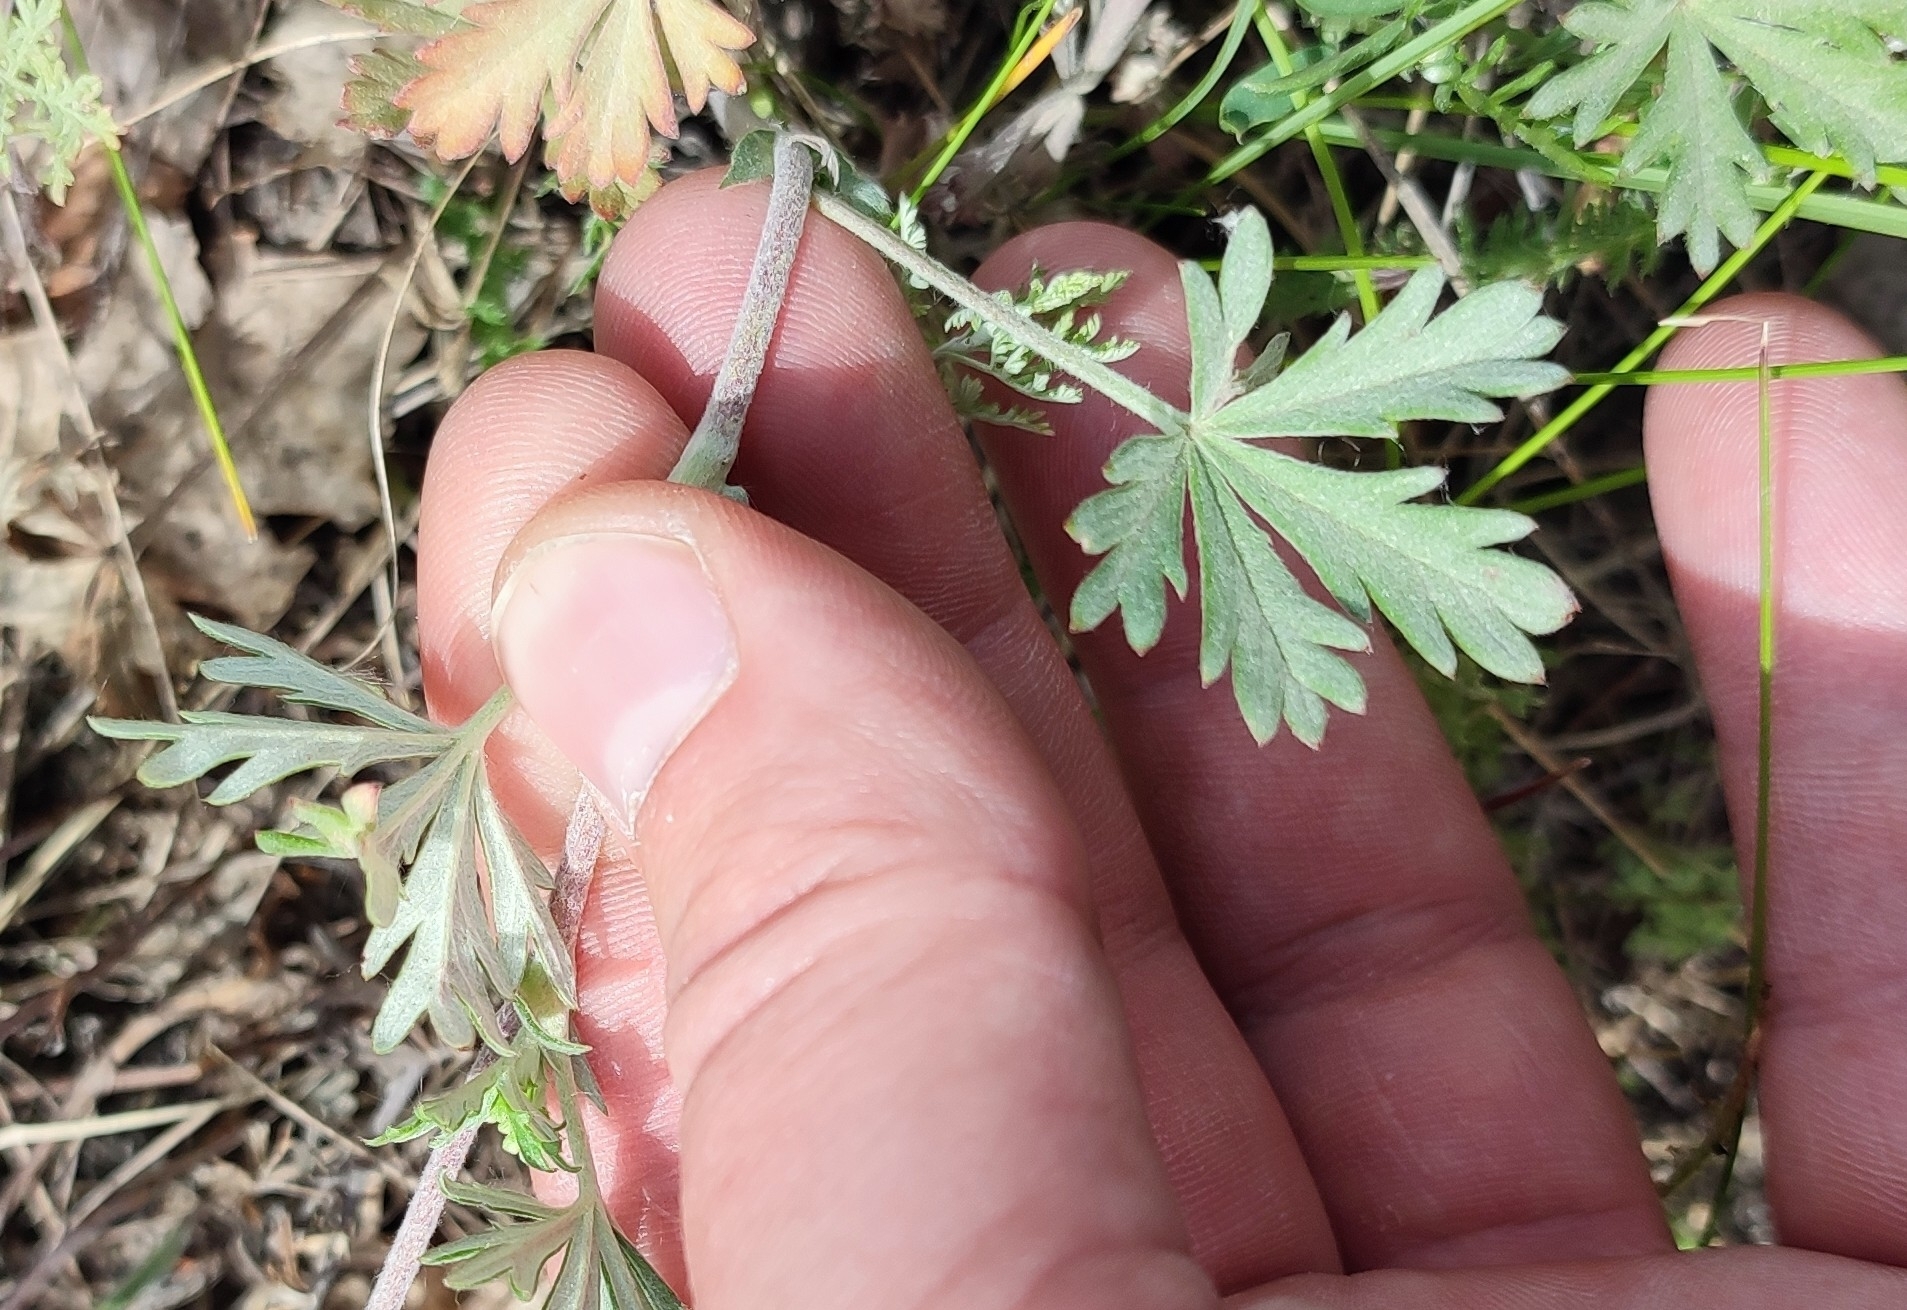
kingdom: Plantae
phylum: Tracheophyta
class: Magnoliopsida
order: Rosales
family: Rosaceae
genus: Potentilla
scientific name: Potentilla argentea
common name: Hoary cinquefoil
